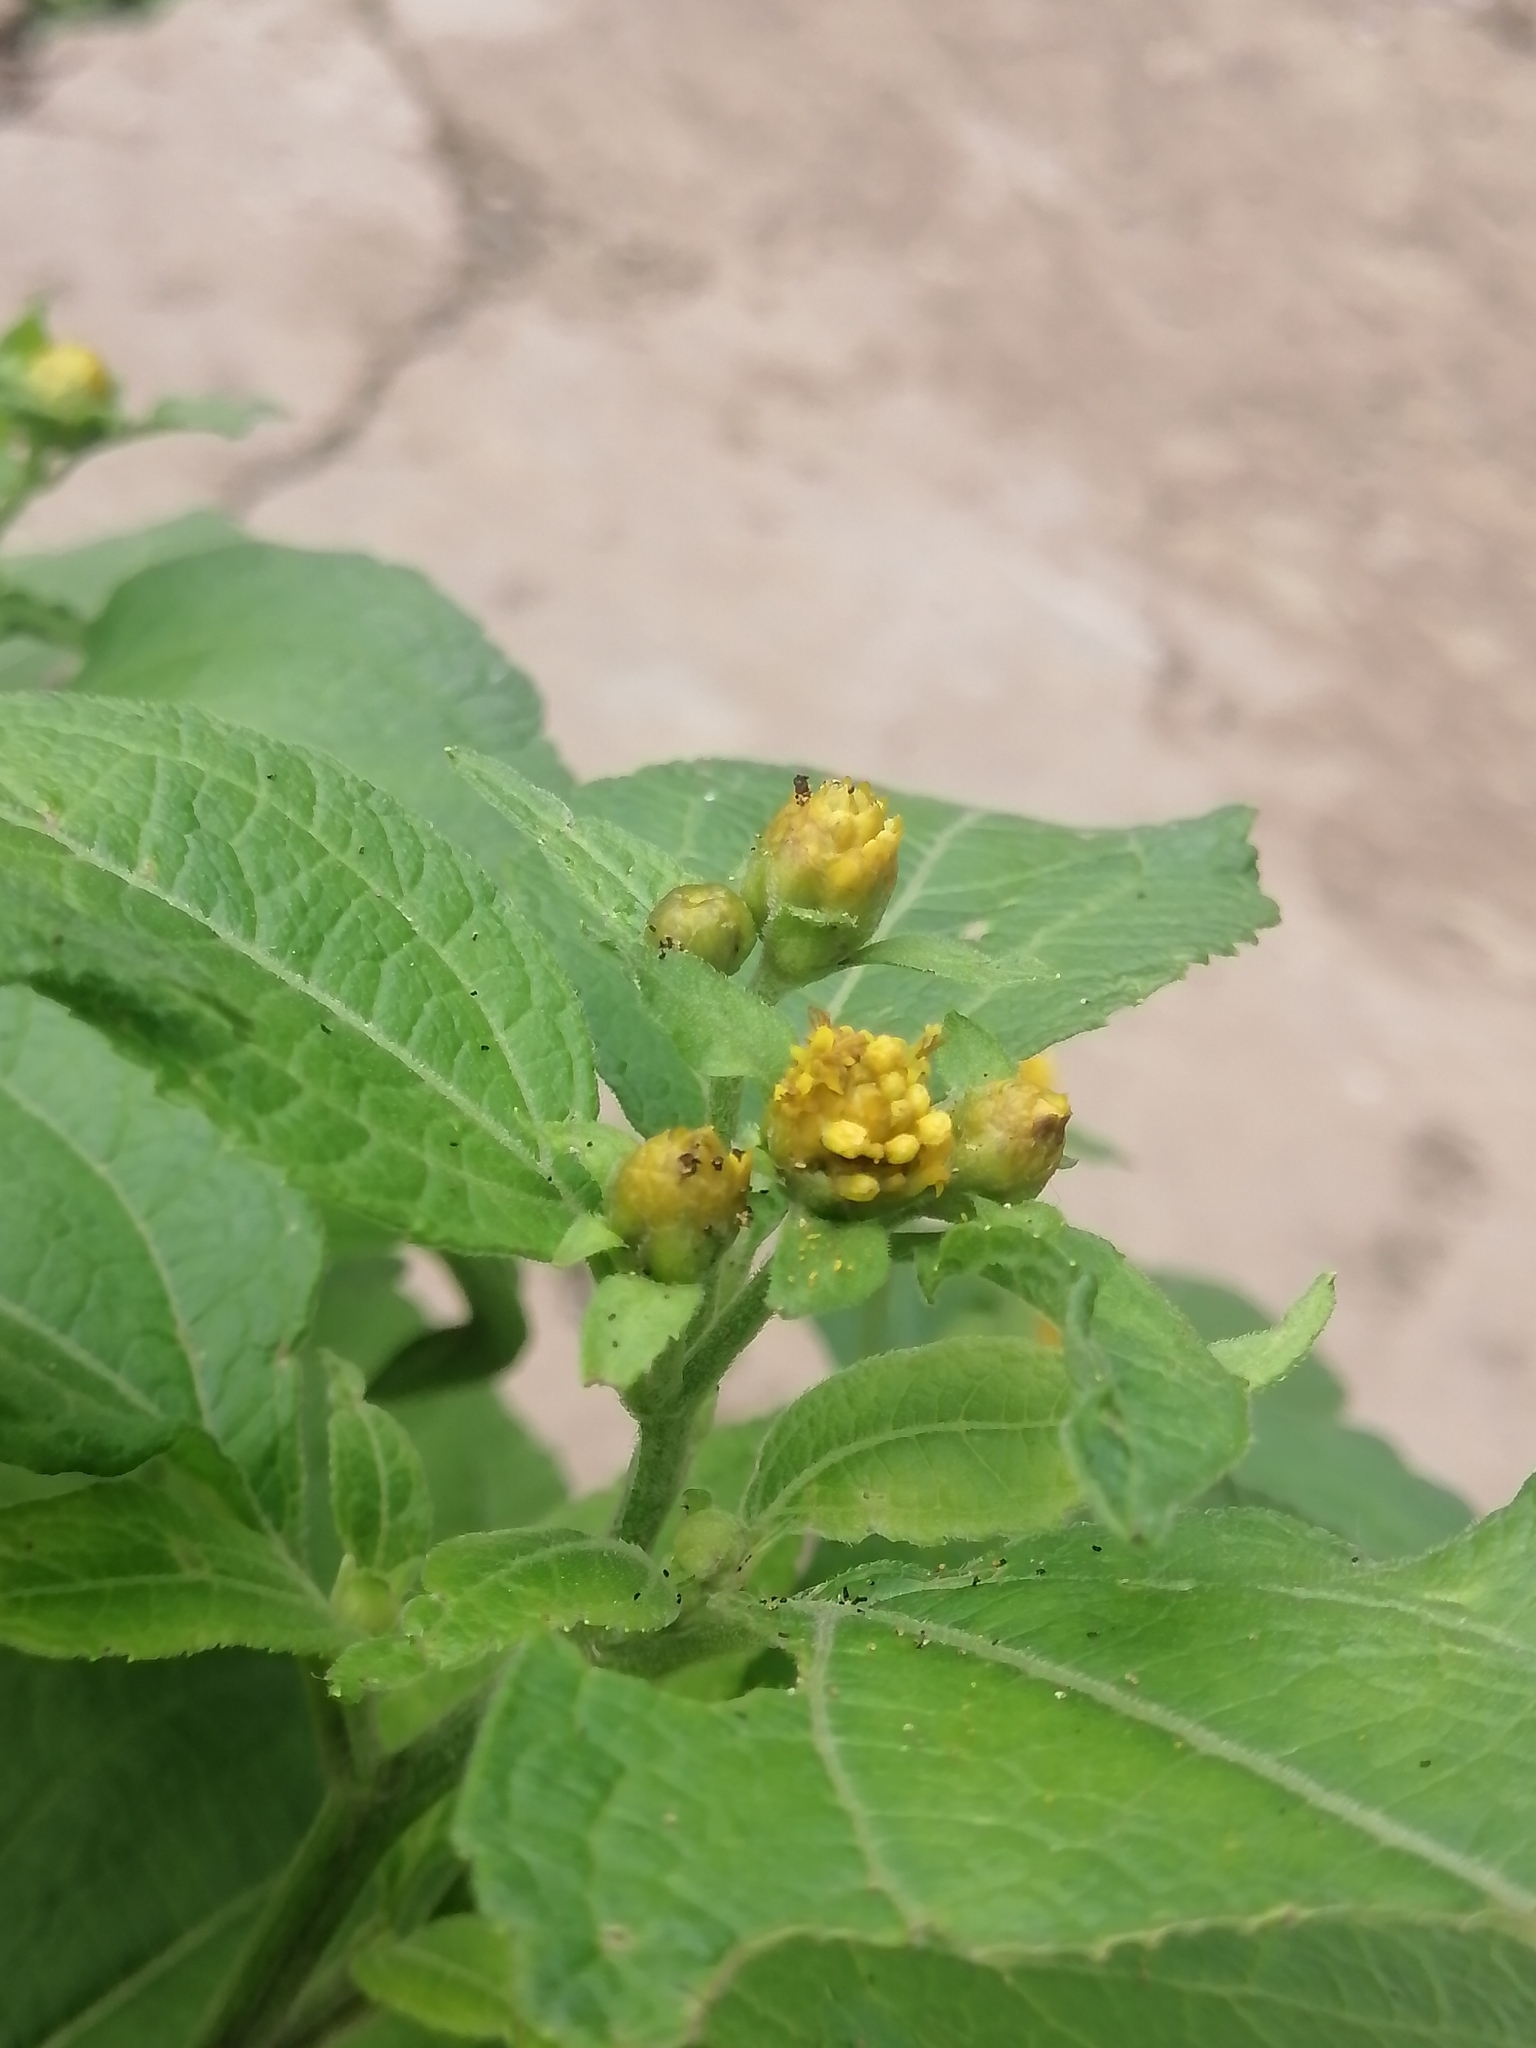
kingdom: Plantae
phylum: Tracheophyta
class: Magnoliopsida
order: Asterales
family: Asteraceae
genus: Greenmaniella
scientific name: Greenmaniella resinosa
